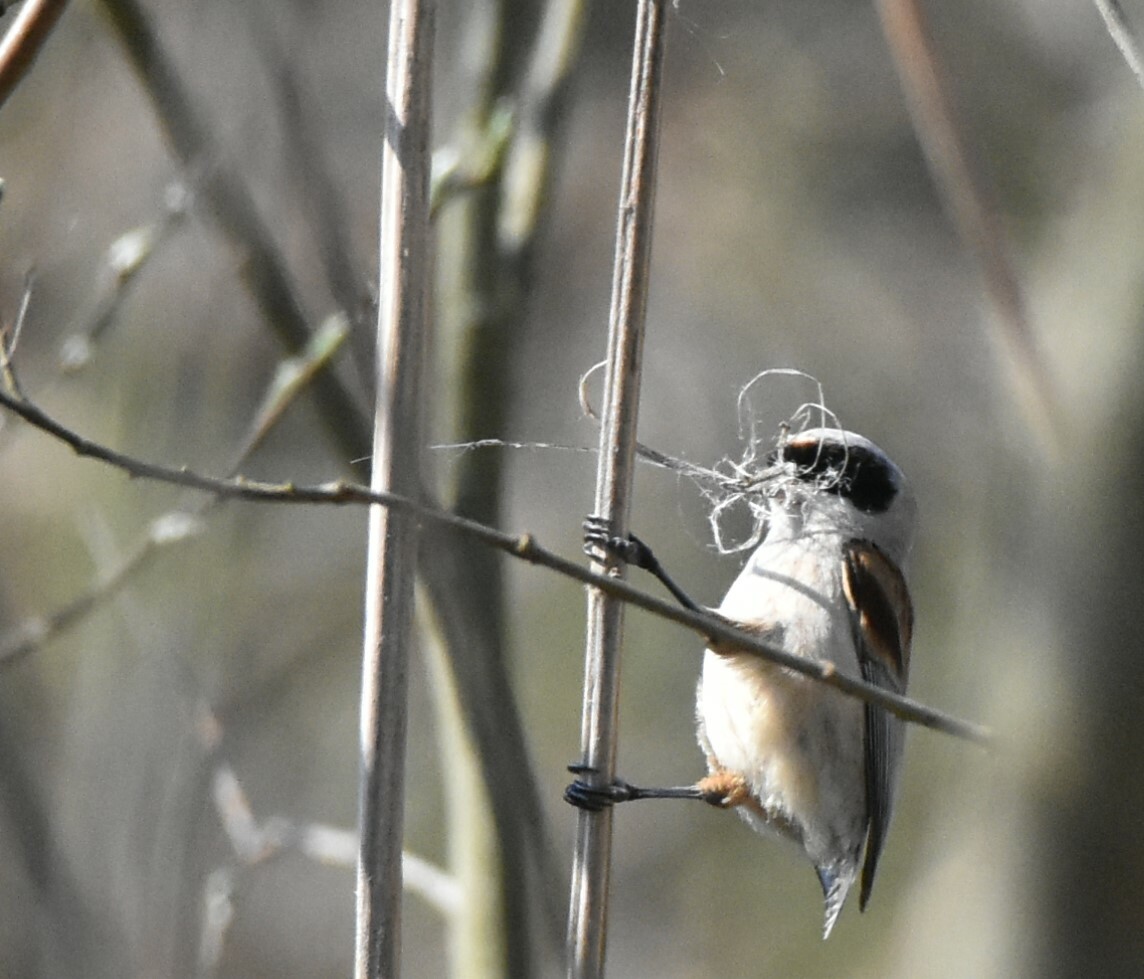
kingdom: Animalia
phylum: Chordata
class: Aves
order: Passeriformes
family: Remizidae
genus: Remiz
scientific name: Remiz pendulinus
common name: Eurasian penduline tit
